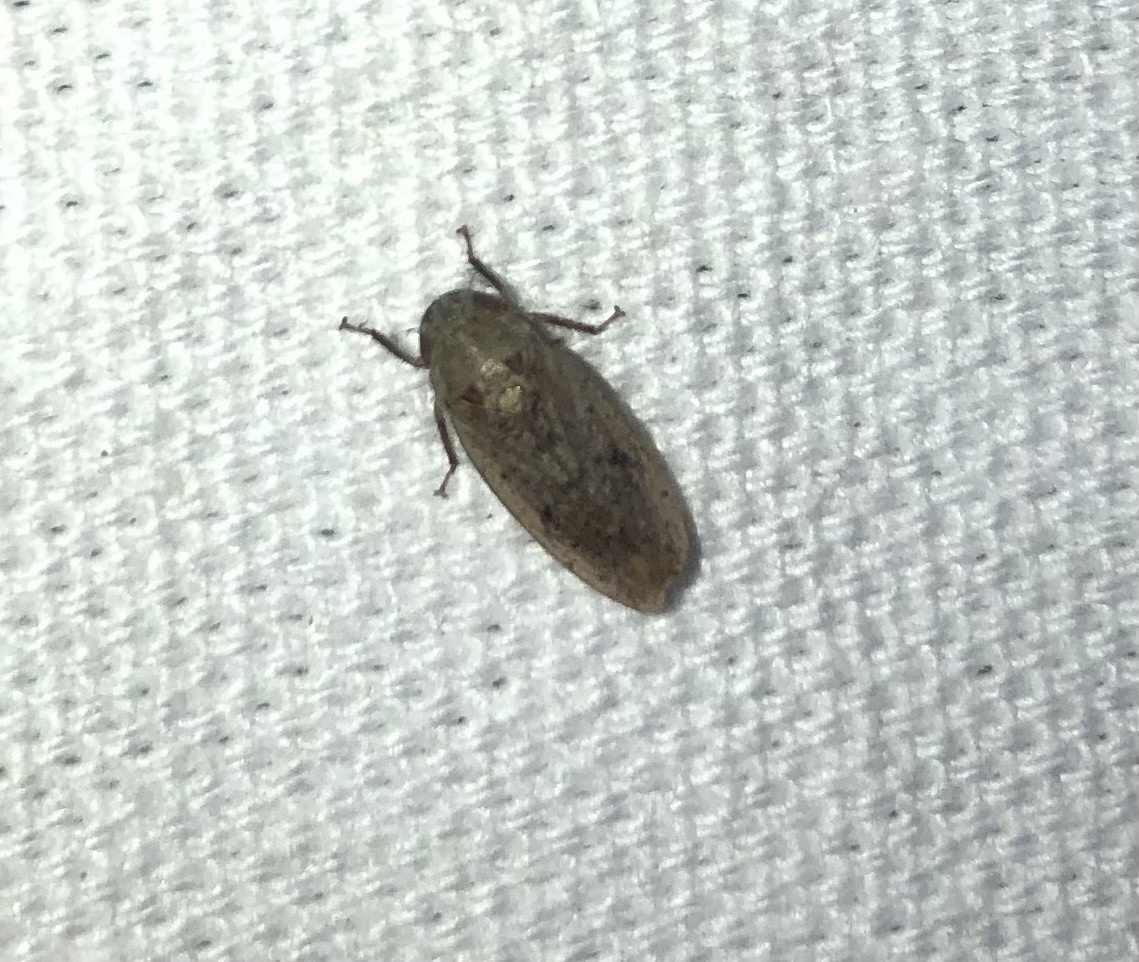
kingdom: Animalia
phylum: Arthropoda
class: Insecta
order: Hemiptera
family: Cicadellidae
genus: Ponana
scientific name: Ponana puncticollis
